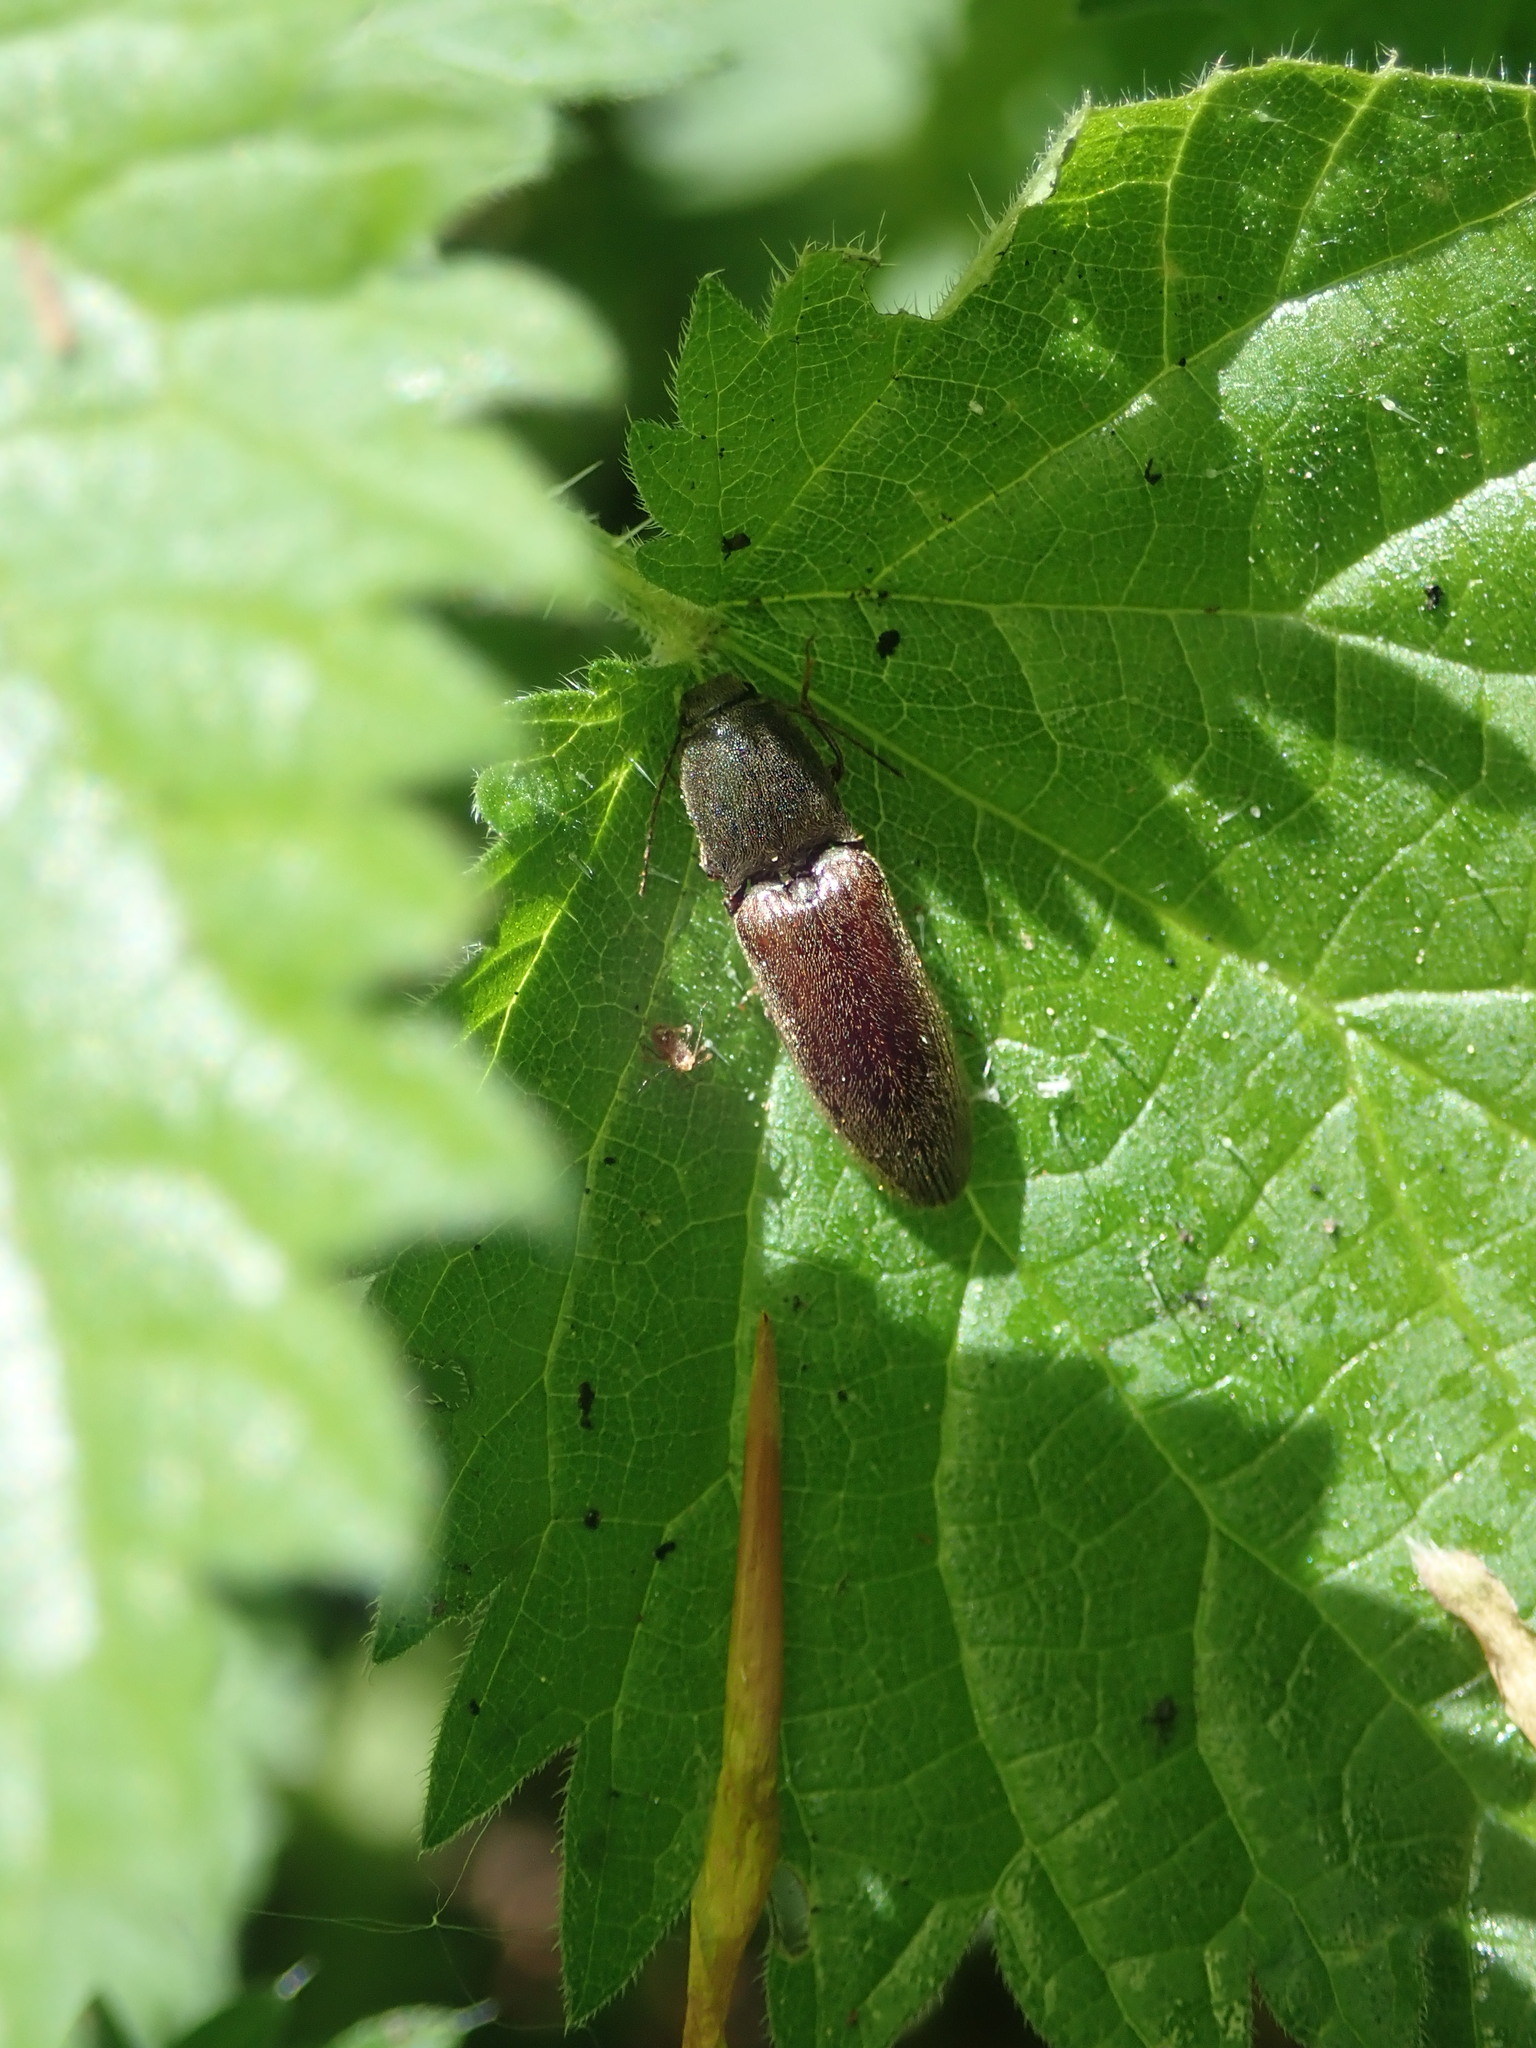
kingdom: Animalia
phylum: Arthropoda
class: Insecta
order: Coleoptera
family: Elateridae
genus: Athous
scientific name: Athous haemorrhoidalis
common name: Red-brown click beetle
